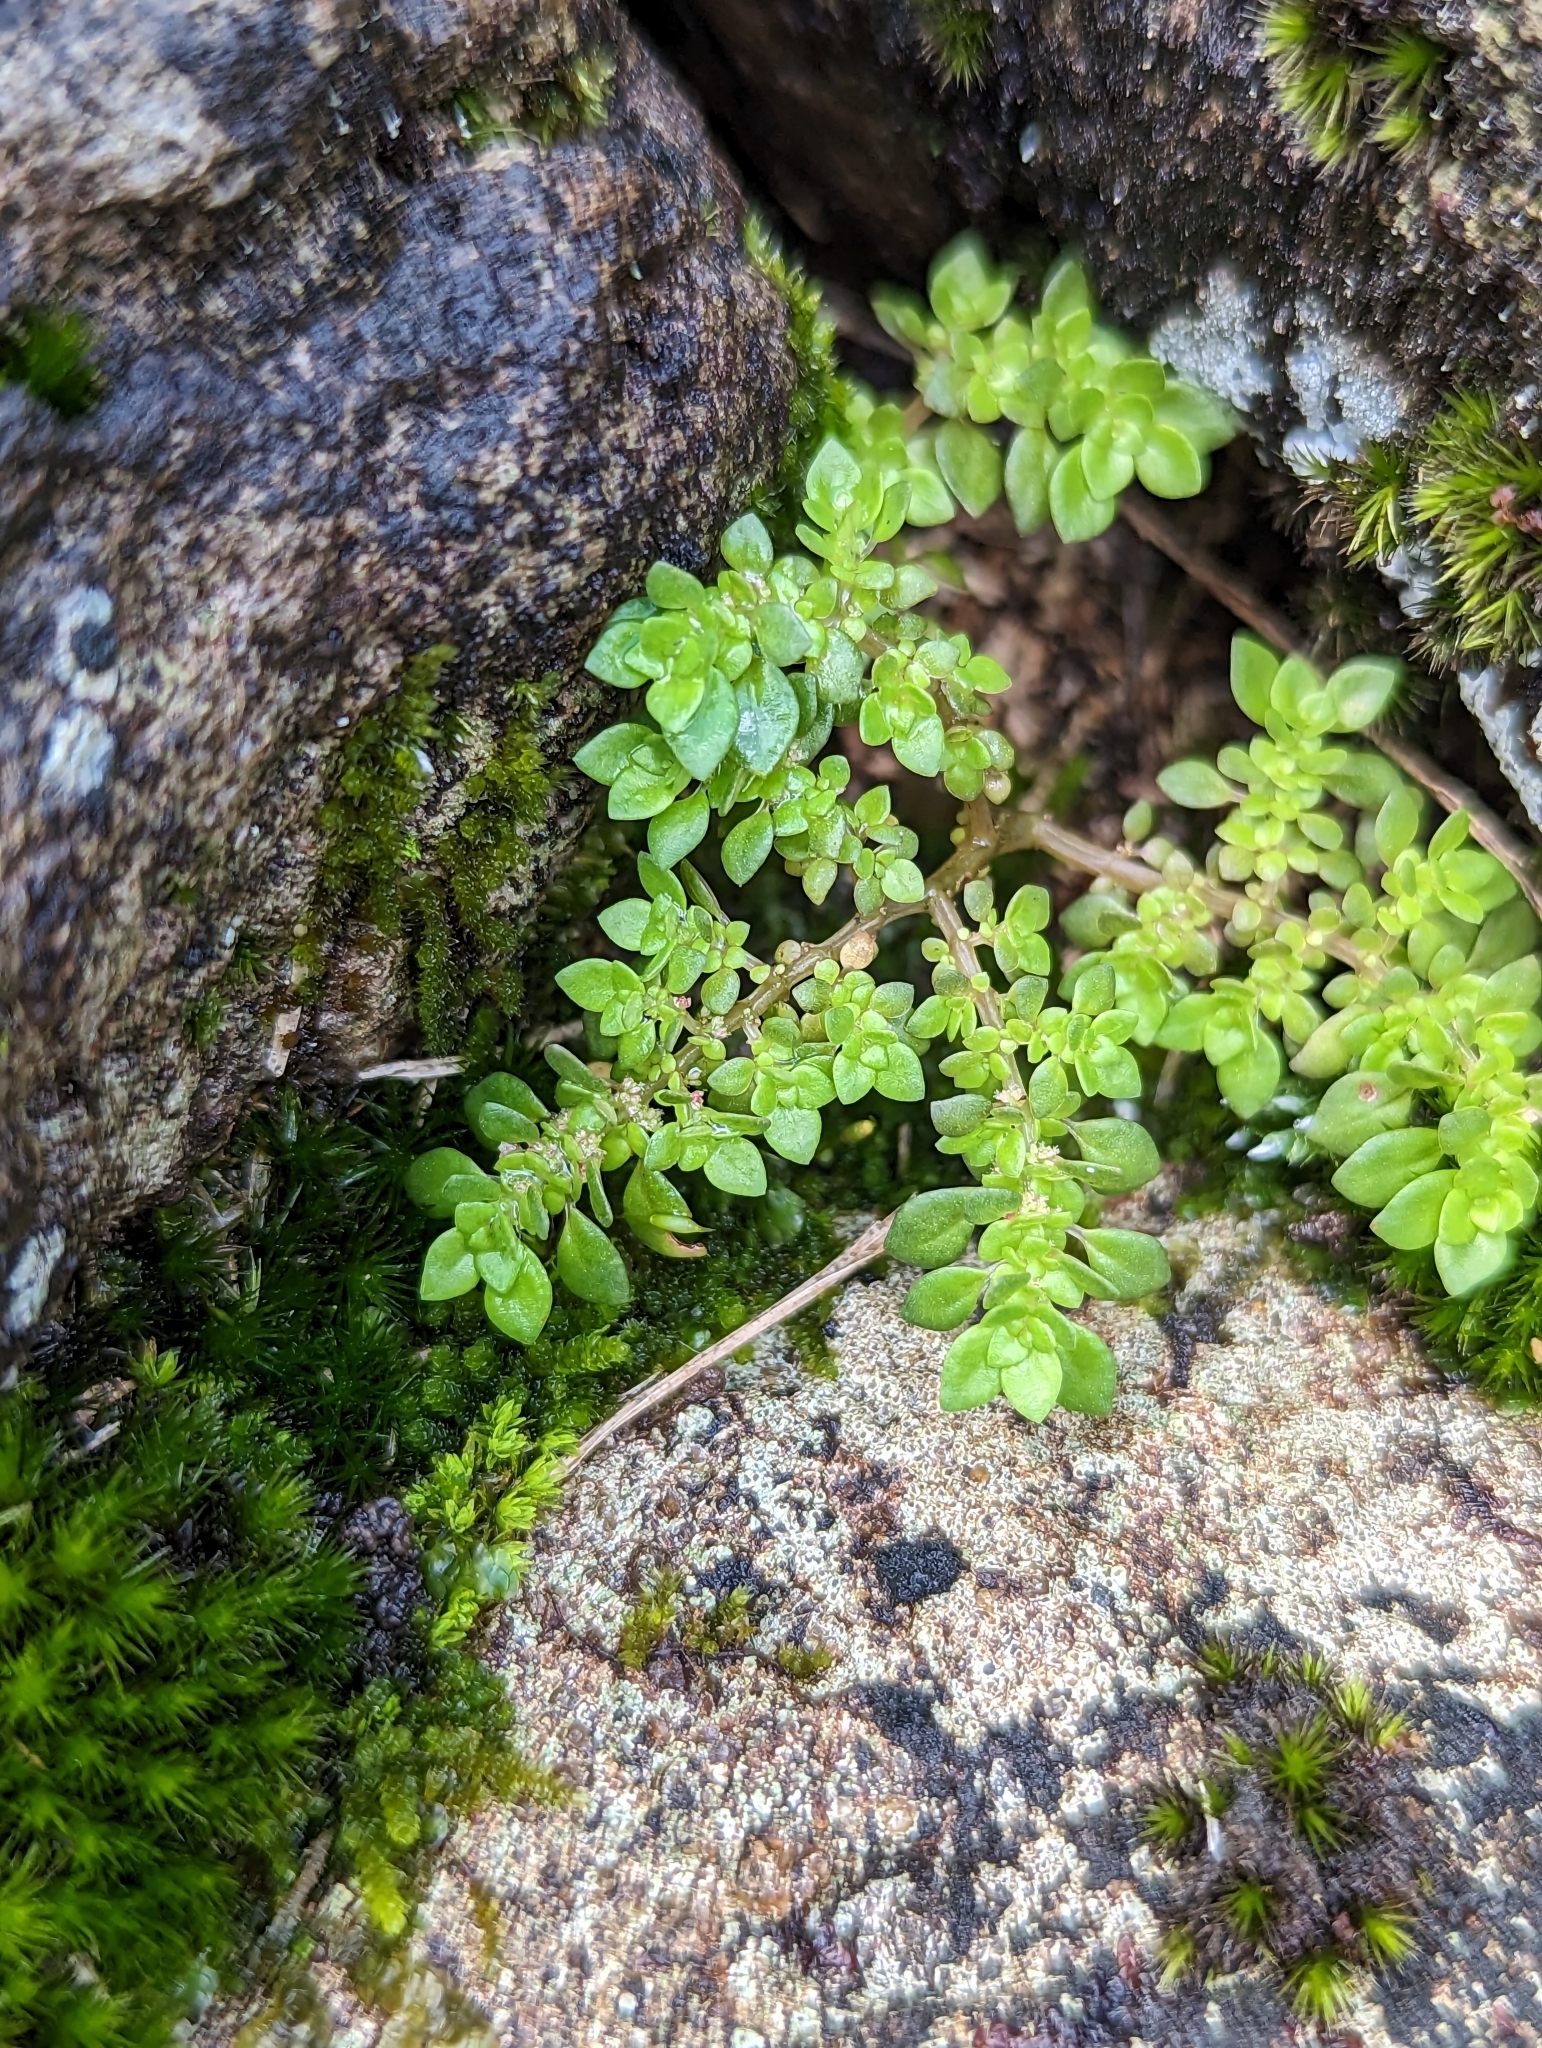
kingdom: Plantae
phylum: Tracheophyta
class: Magnoliopsida
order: Rosales
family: Urticaceae
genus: Pilea
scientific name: Pilea microphylla
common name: Artillery-plant
